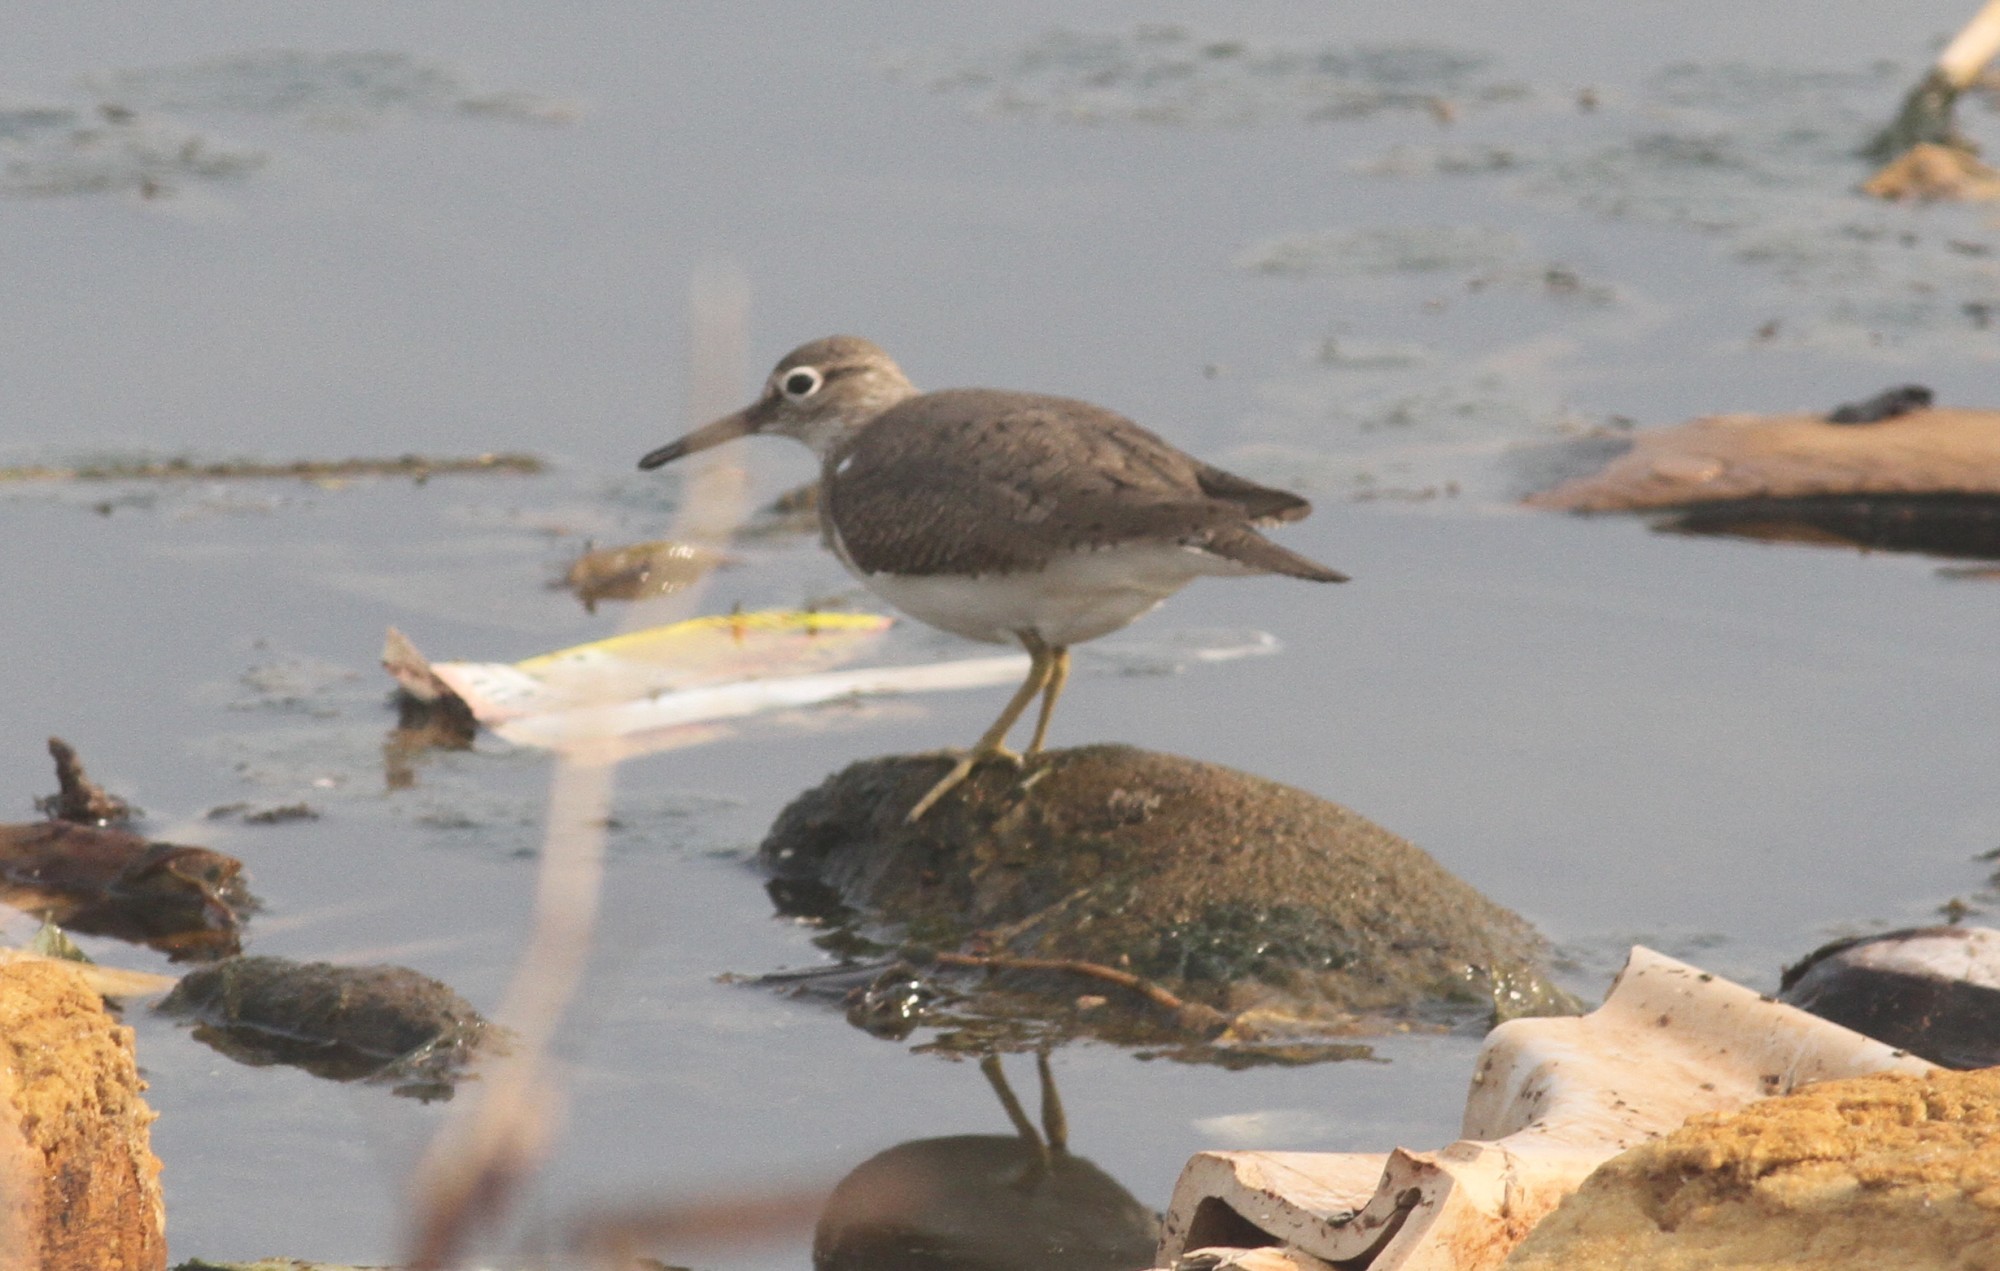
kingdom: Animalia
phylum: Chordata
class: Aves
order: Charadriiformes
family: Scolopacidae
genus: Actitis
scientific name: Actitis hypoleucos
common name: Common sandpiper
